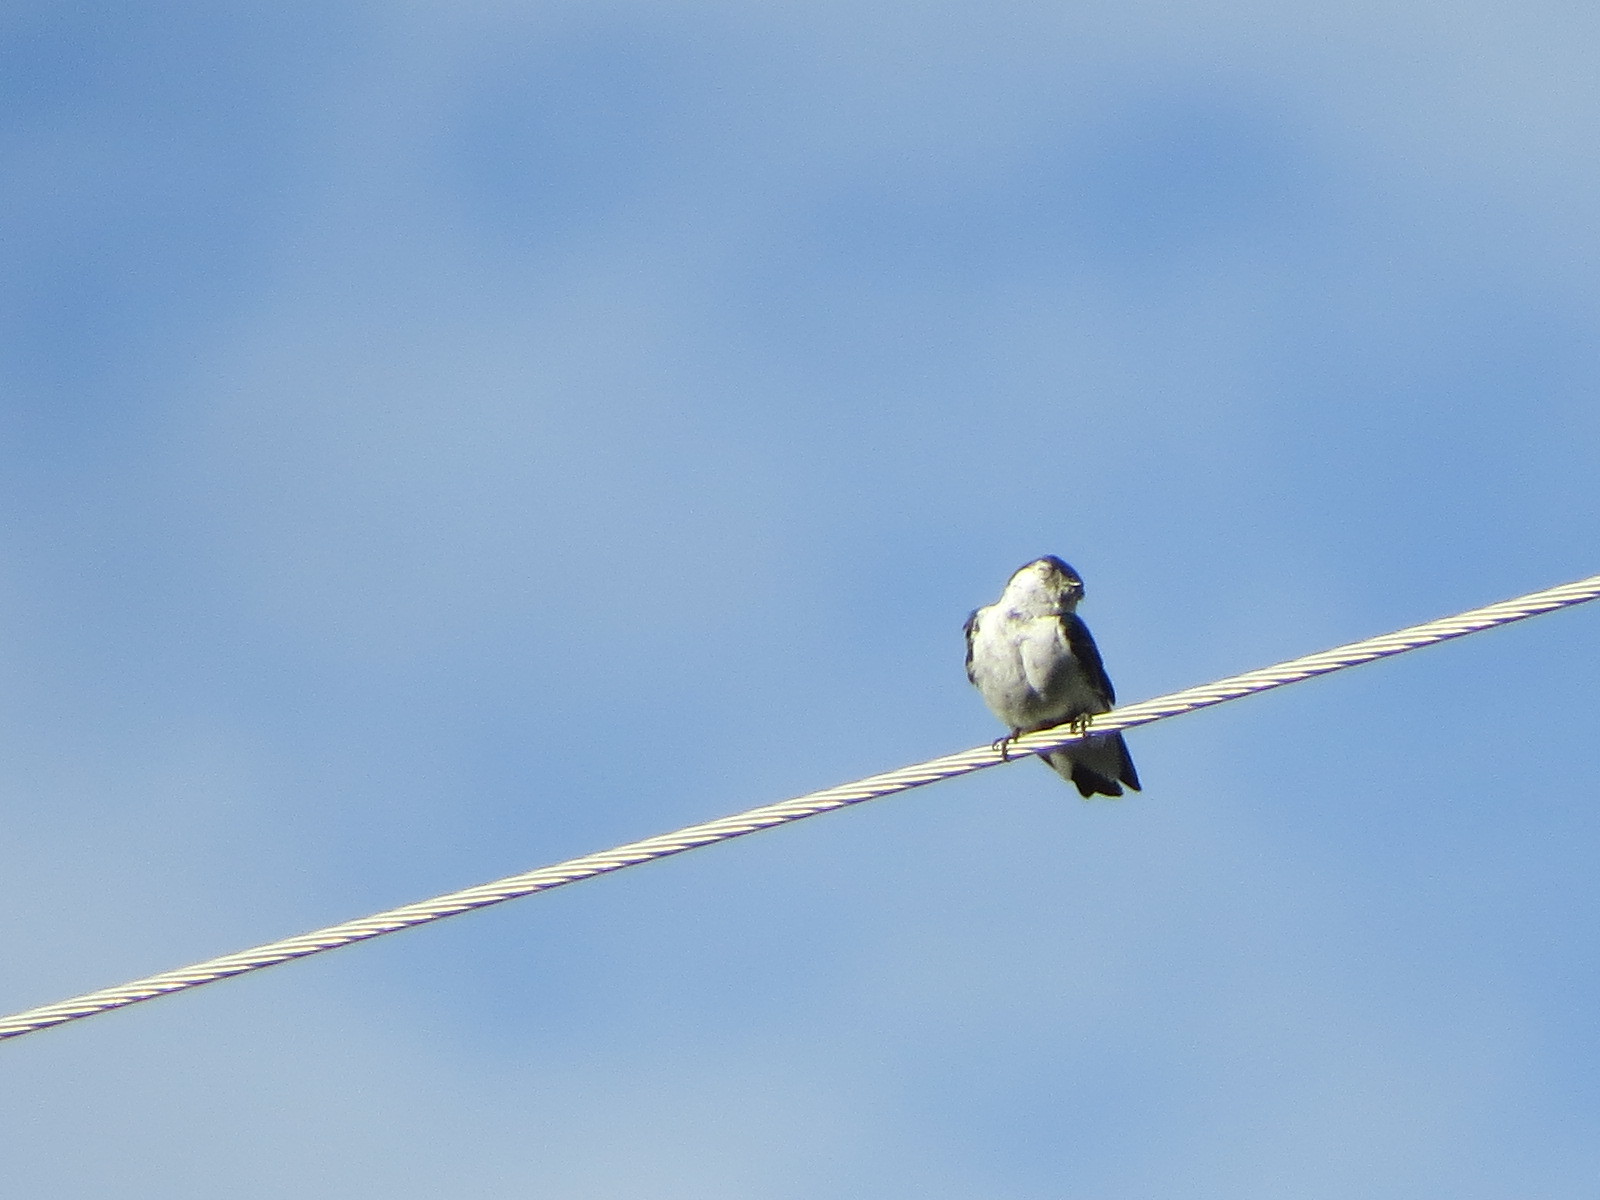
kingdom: Animalia
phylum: Chordata
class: Aves
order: Passeriformes
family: Hirundinidae
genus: Tachycineta
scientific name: Tachycineta thalassina
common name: Violet-green swallow
